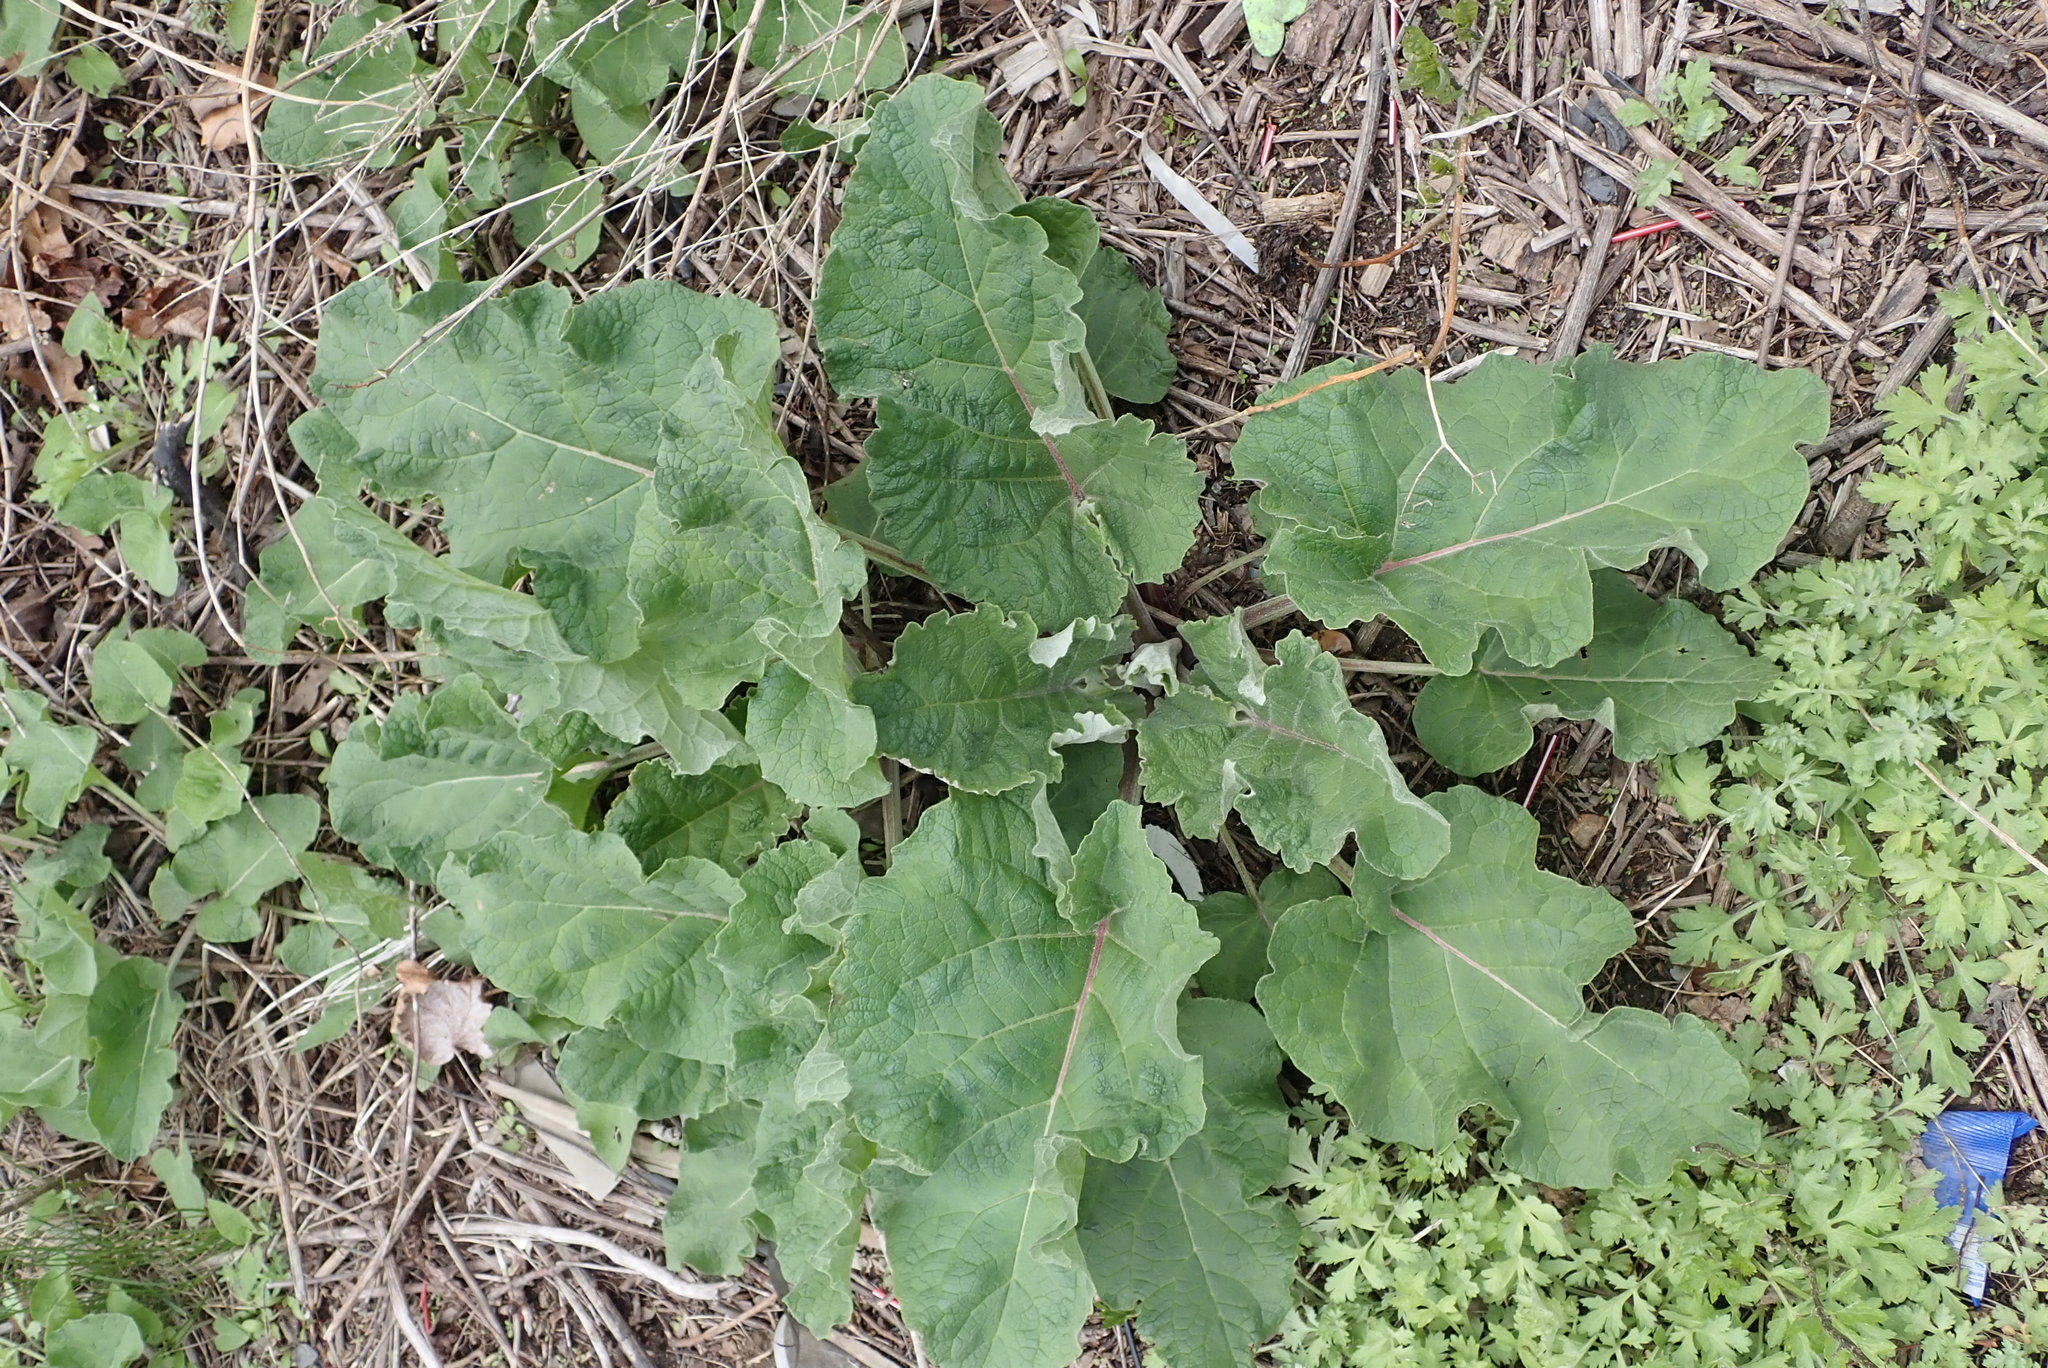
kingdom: Plantae
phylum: Tracheophyta
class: Magnoliopsida
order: Asterales
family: Asteraceae
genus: Arctium
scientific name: Arctium
